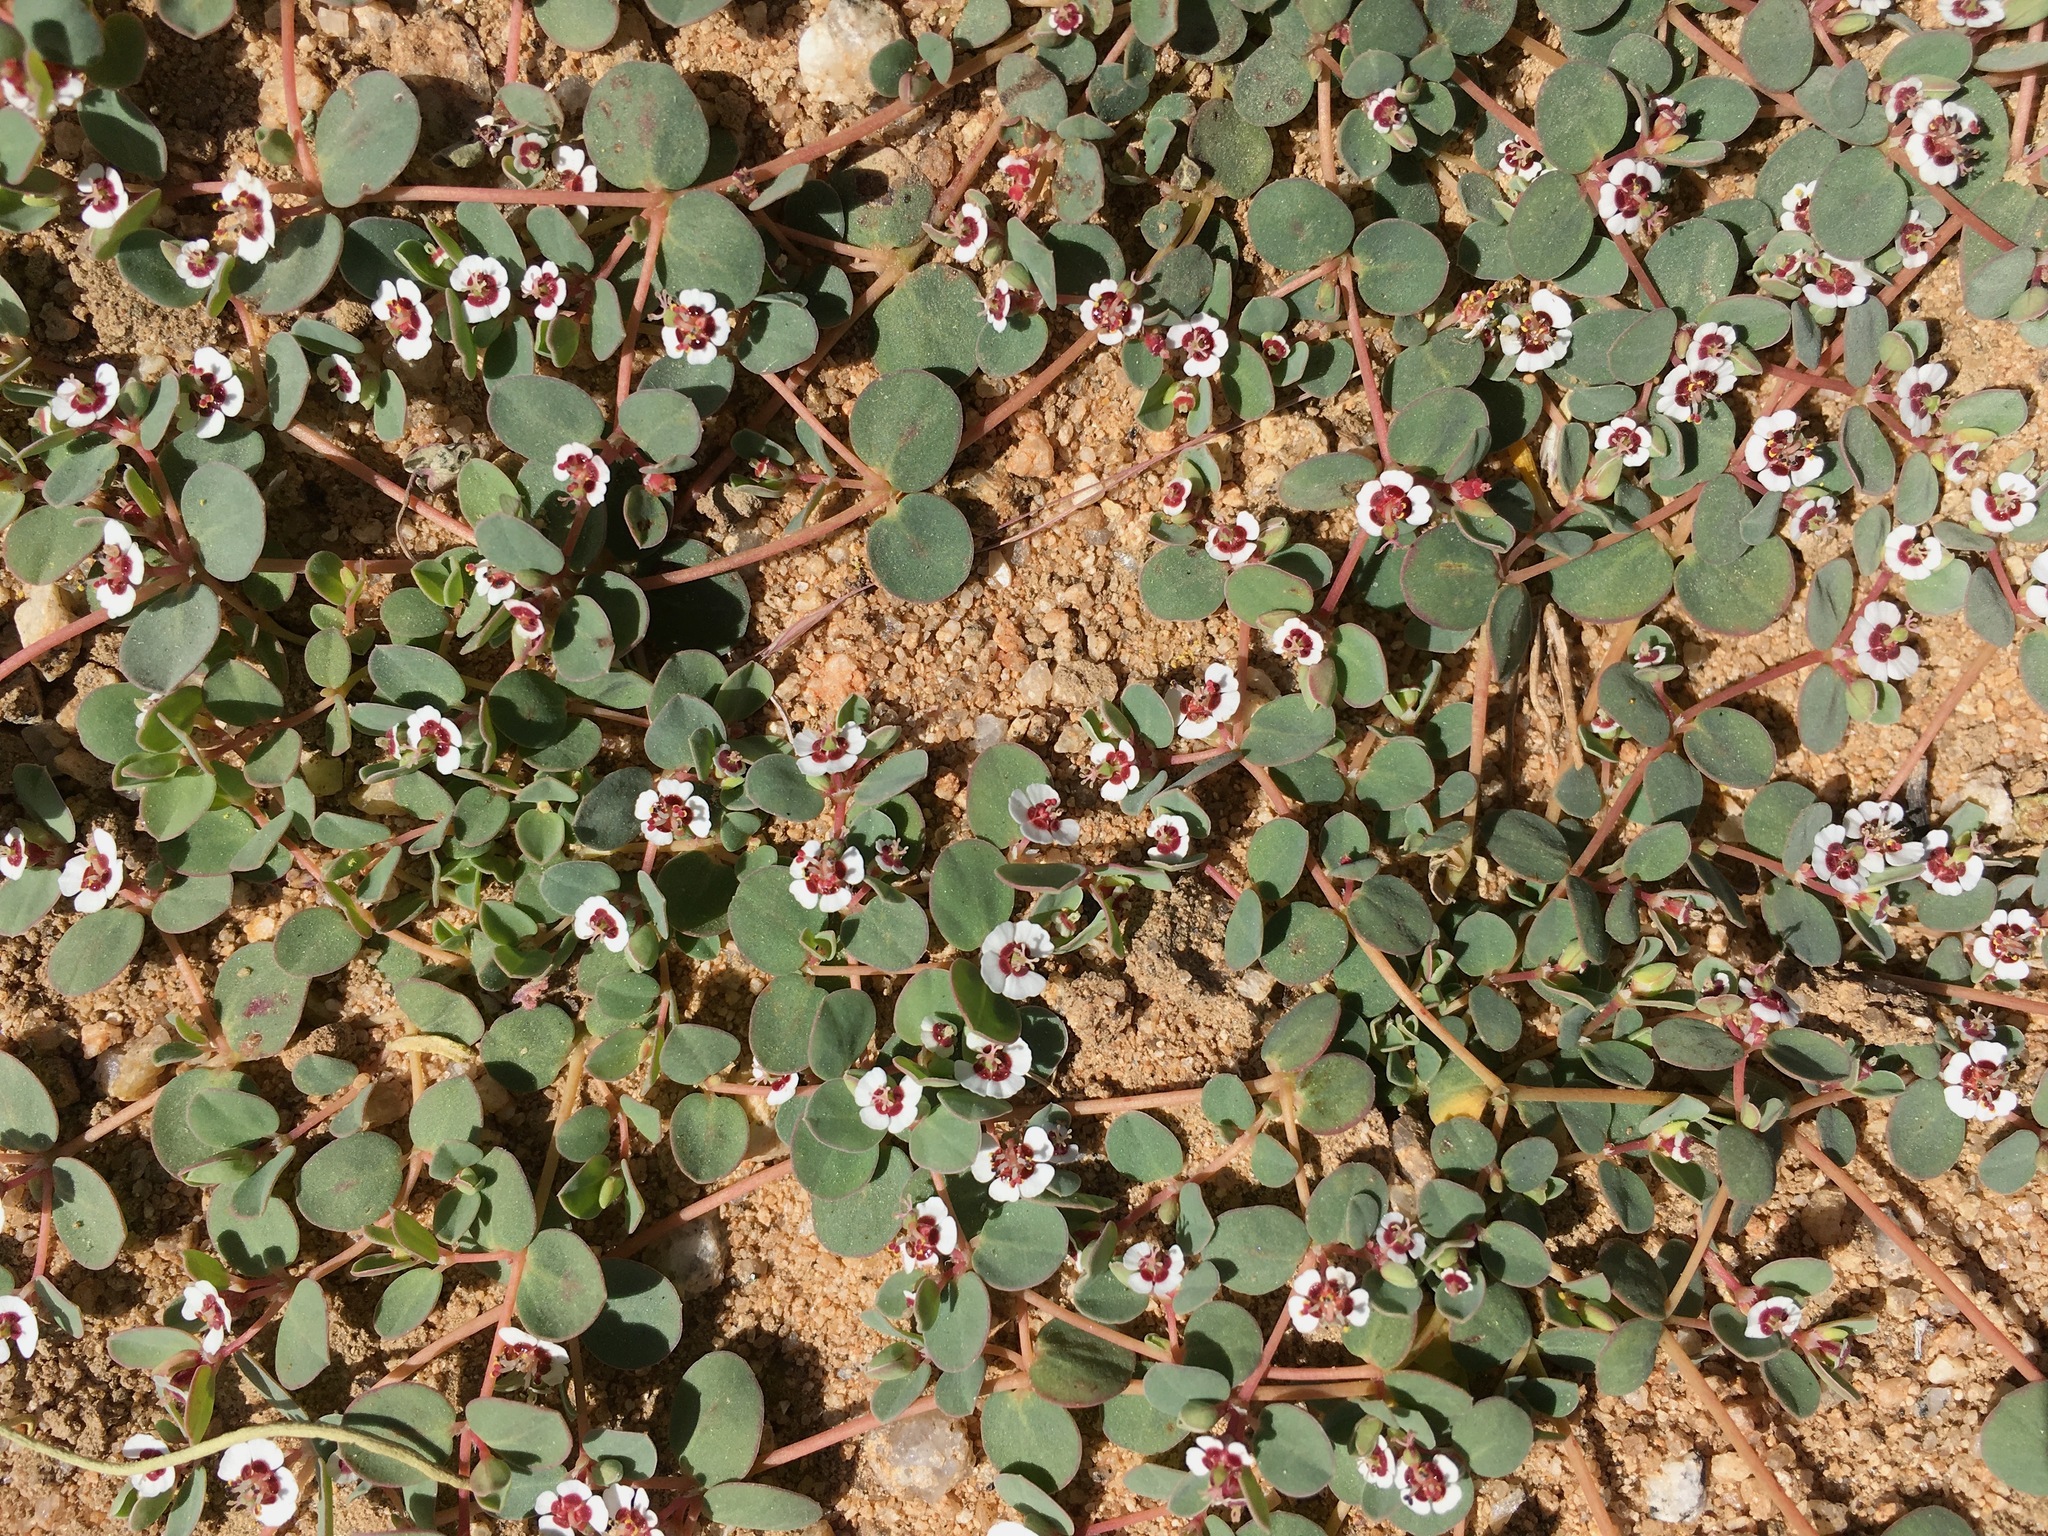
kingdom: Plantae
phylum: Tracheophyta
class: Magnoliopsida
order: Malpighiales
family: Euphorbiaceae
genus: Euphorbia
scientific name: Euphorbia albomarginata
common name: Whitemargin sandmat
